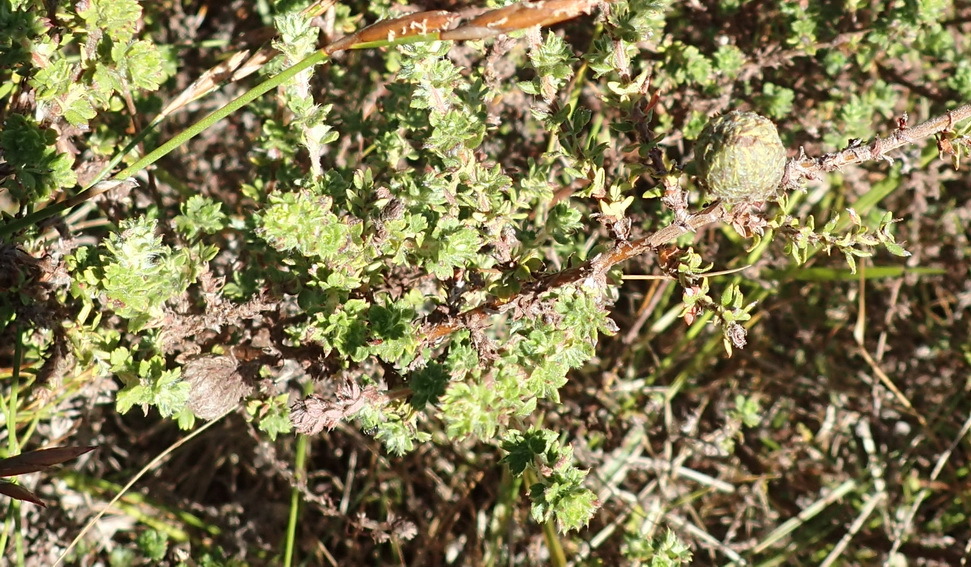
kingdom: Plantae
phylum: Tracheophyta
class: Magnoliopsida
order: Rosales
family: Rosaceae
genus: Cliffortia
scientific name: Cliffortia filicaulis
